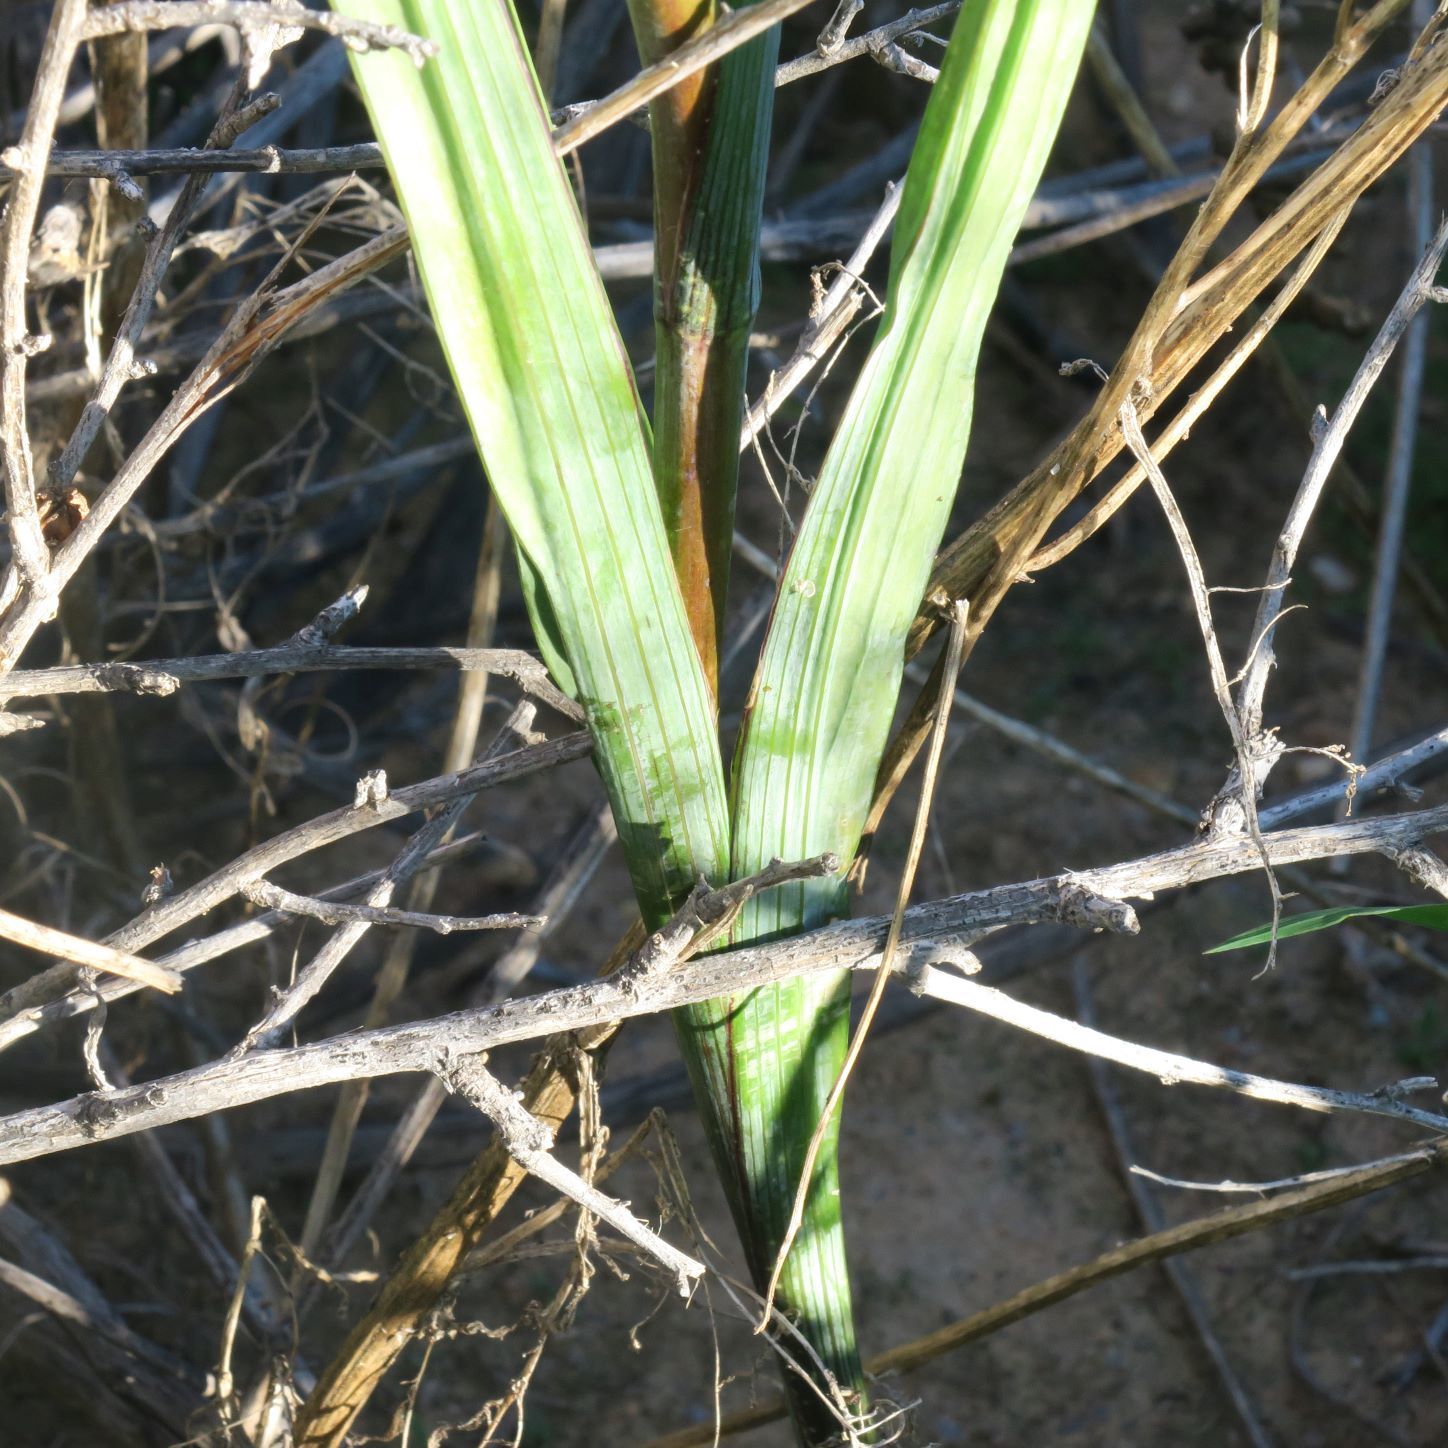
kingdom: Plantae
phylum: Tracheophyta
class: Liliopsida
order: Asparagales
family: Iridaceae
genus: Gladiolus
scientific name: Gladiolus saccatus
